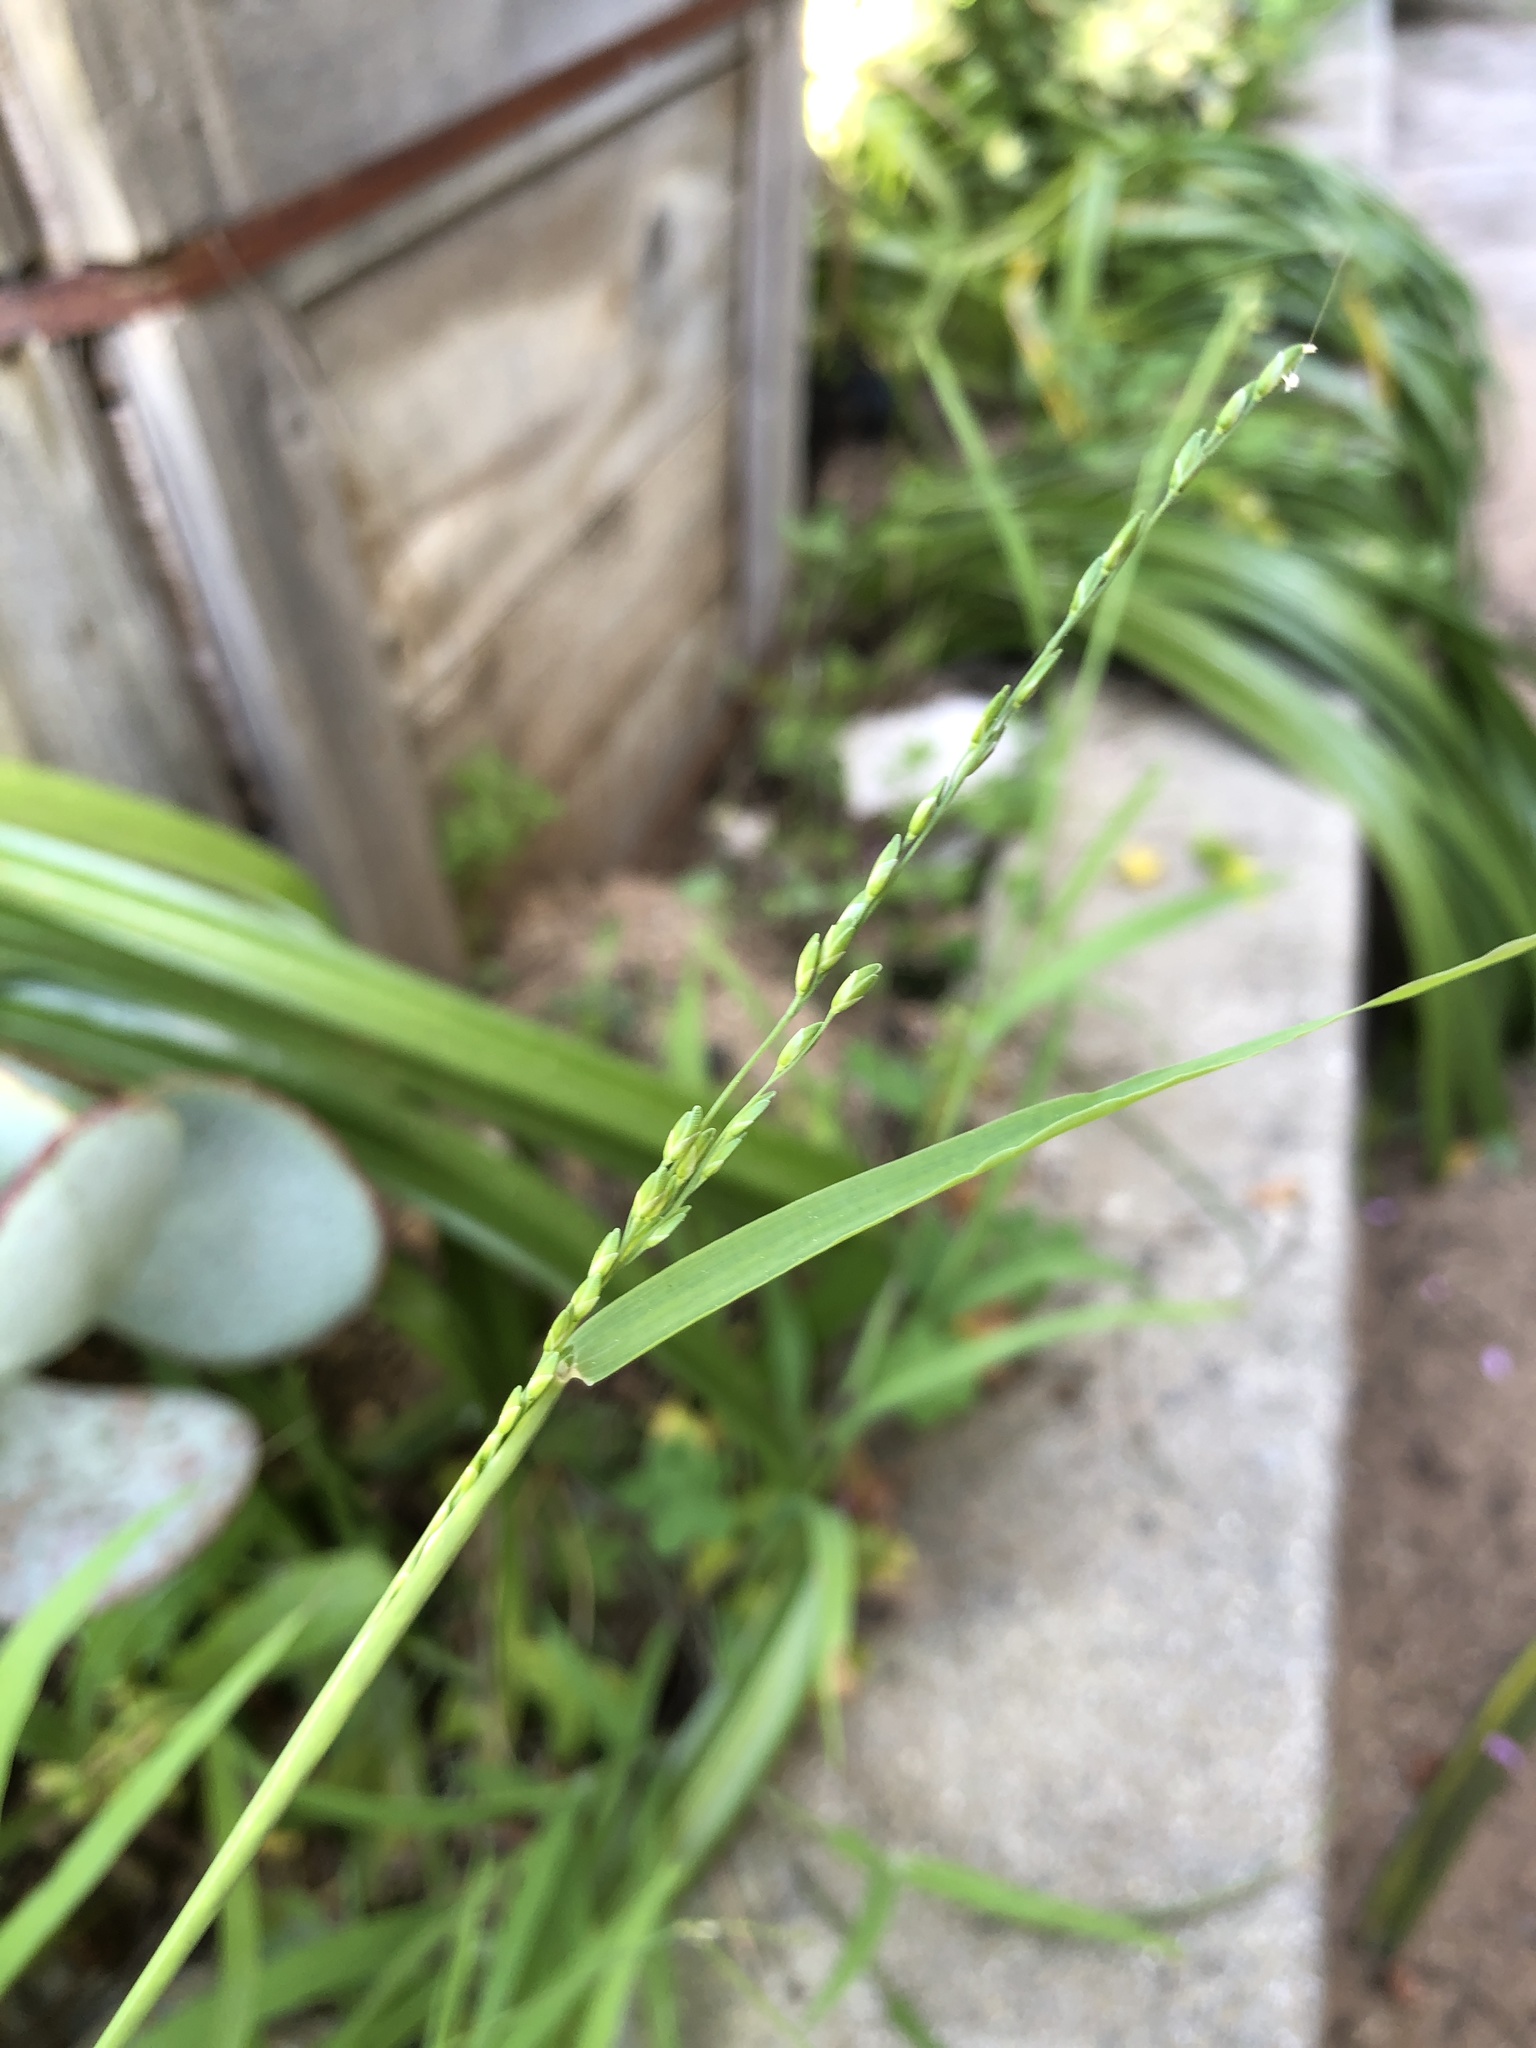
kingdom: Plantae
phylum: Tracheophyta
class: Liliopsida
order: Poales
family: Poaceae
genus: Ehrharta
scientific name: Ehrharta erecta
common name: Panic veldtgrass
